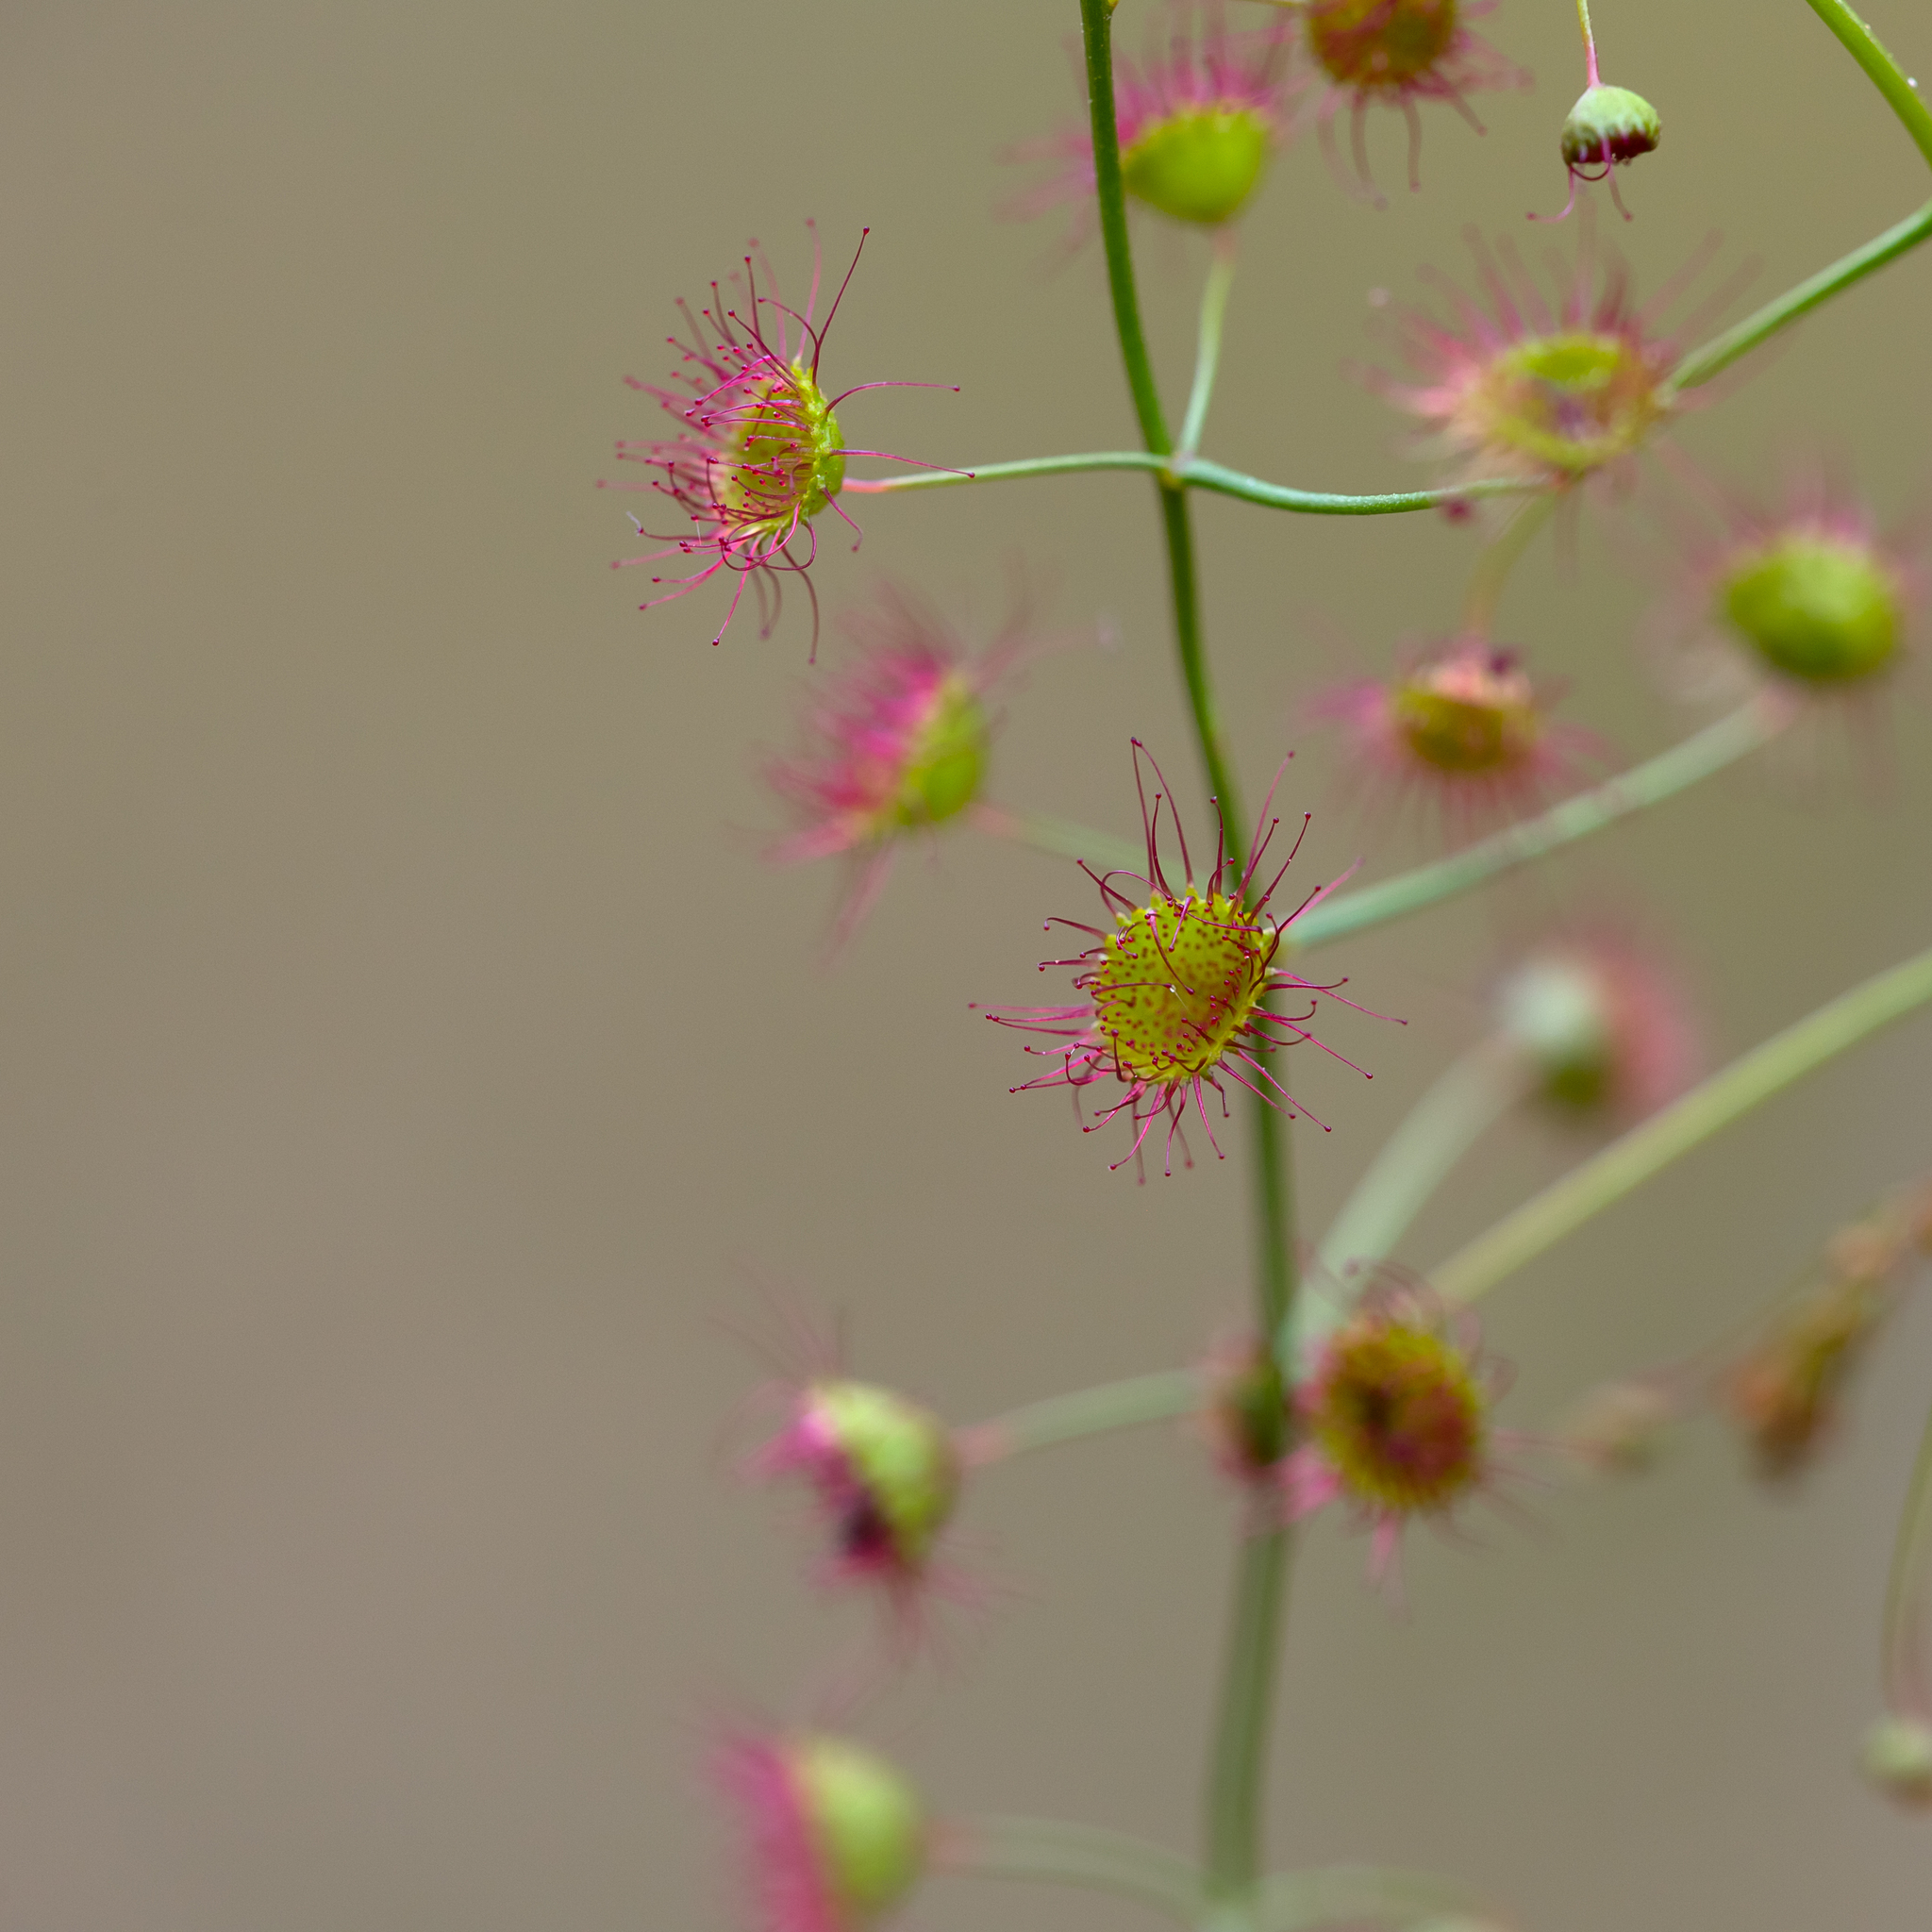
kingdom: Plantae
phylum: Tracheophyta
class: Magnoliopsida
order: Caryophyllales
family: Droseraceae
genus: Drosera
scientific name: Drosera planchonii
